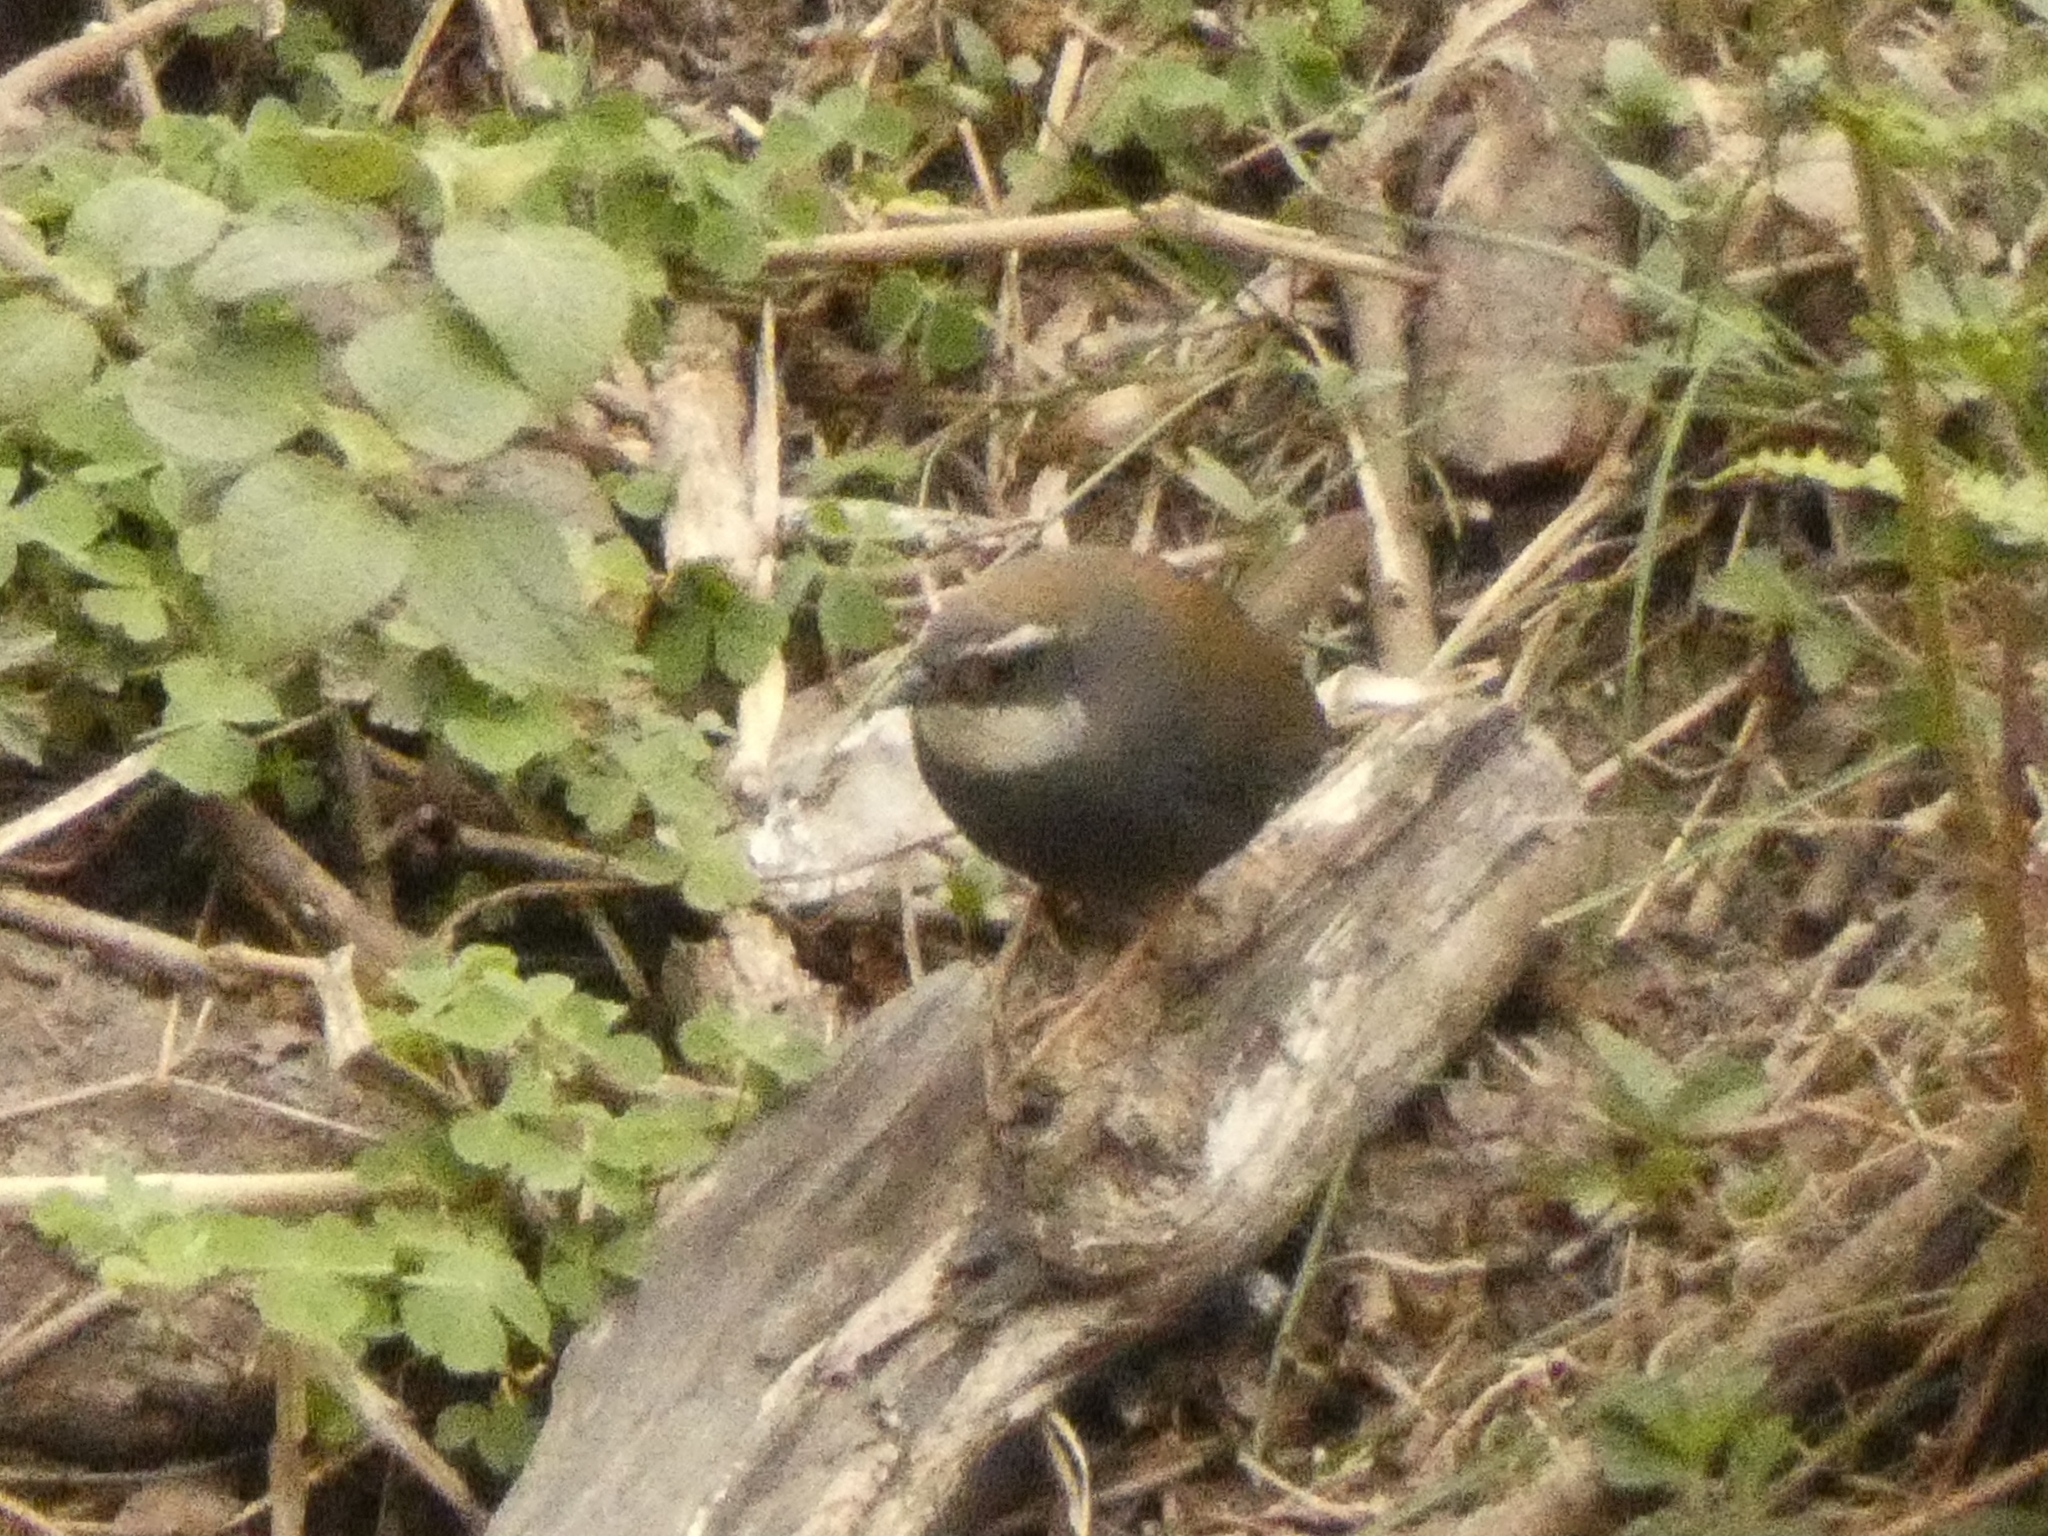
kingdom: Animalia
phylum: Chordata
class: Aves
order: Passeriformes
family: Rhinocryptidae
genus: Scytalopus
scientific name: Scytalopus superciliaris
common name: White-browed tapaculo
